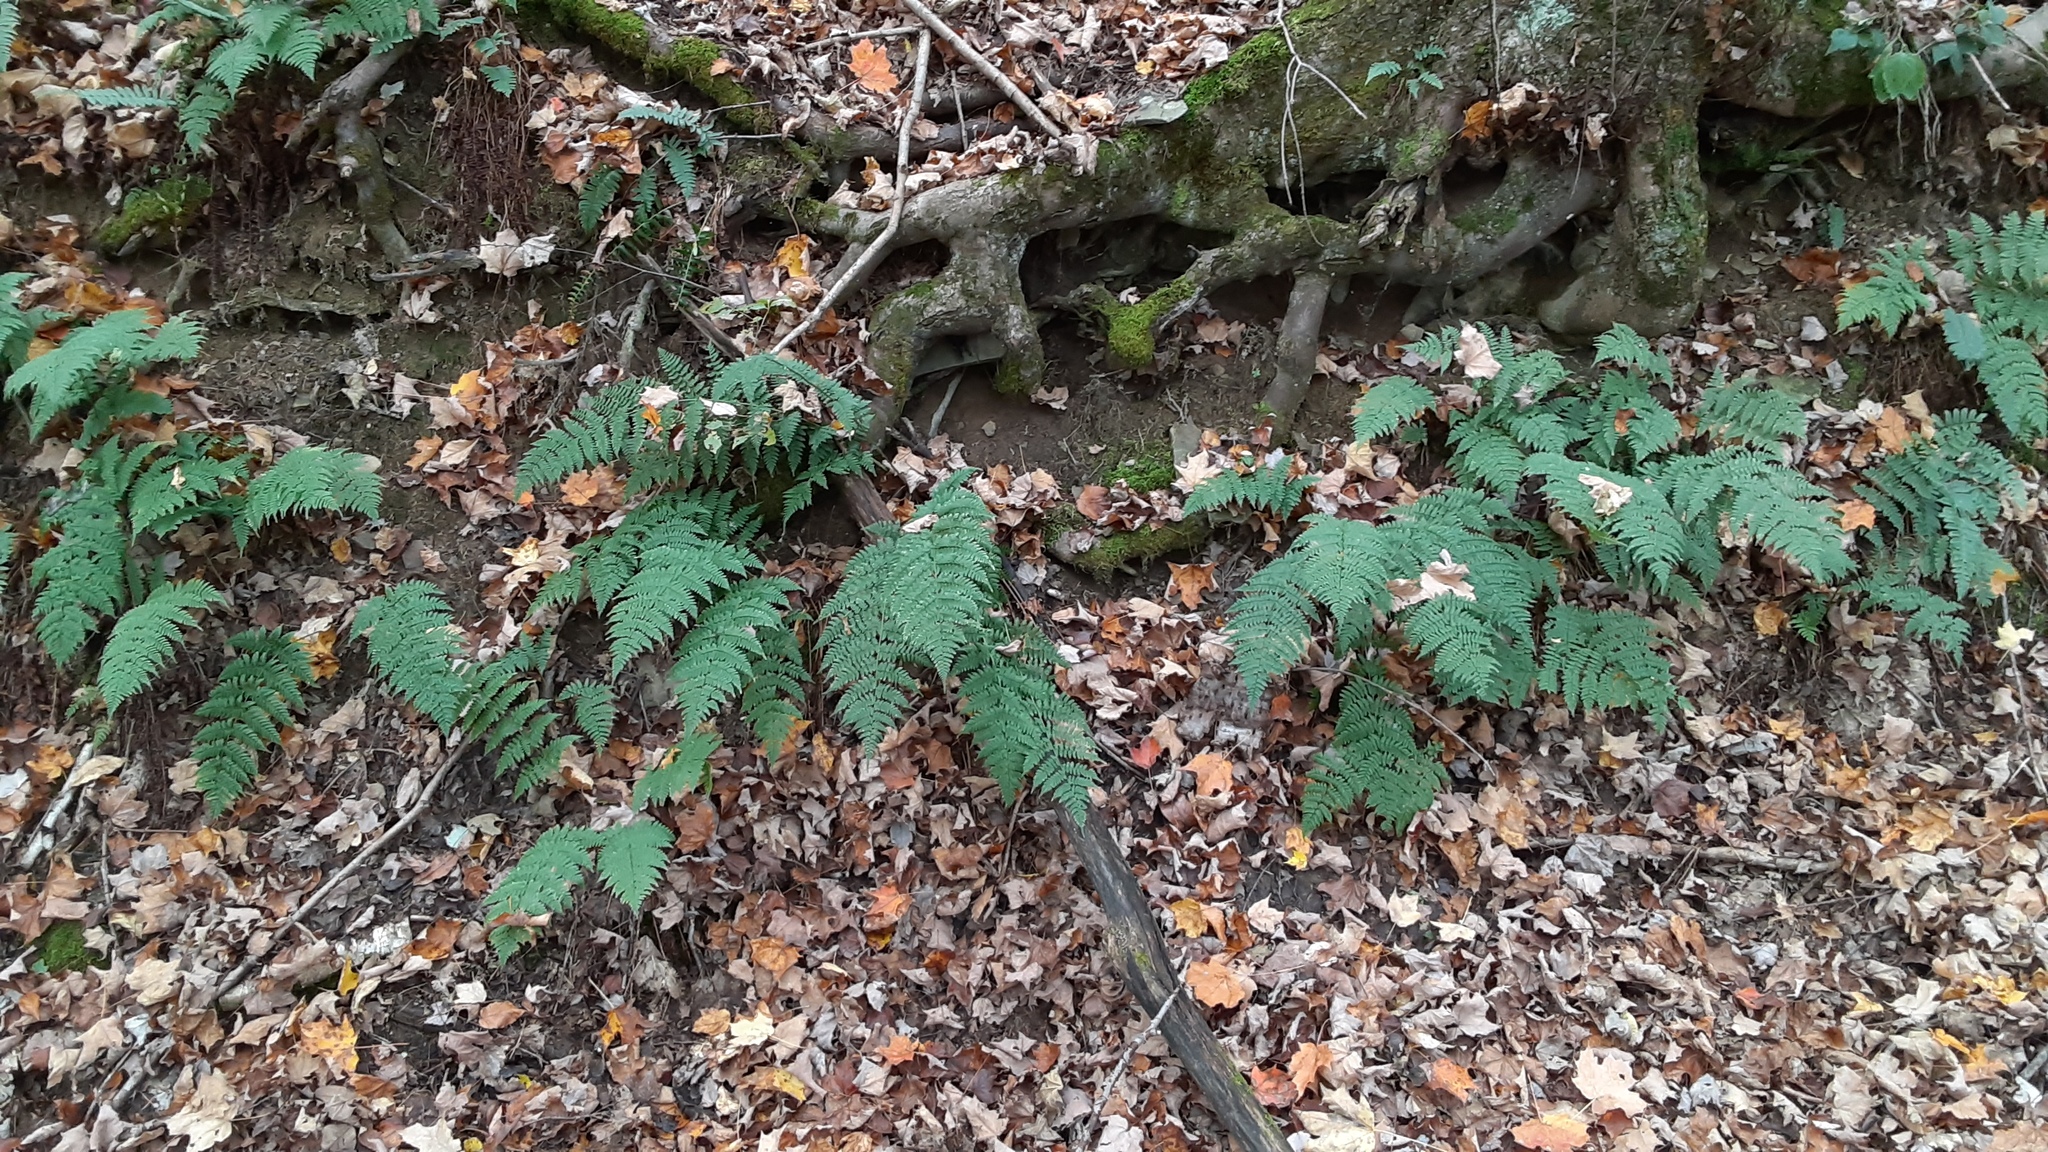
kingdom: Plantae
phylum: Tracheophyta
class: Polypodiopsida
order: Polypodiales
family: Dryopteridaceae
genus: Dryopteris
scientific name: Dryopteris intermedia
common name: Evergreen wood fern
